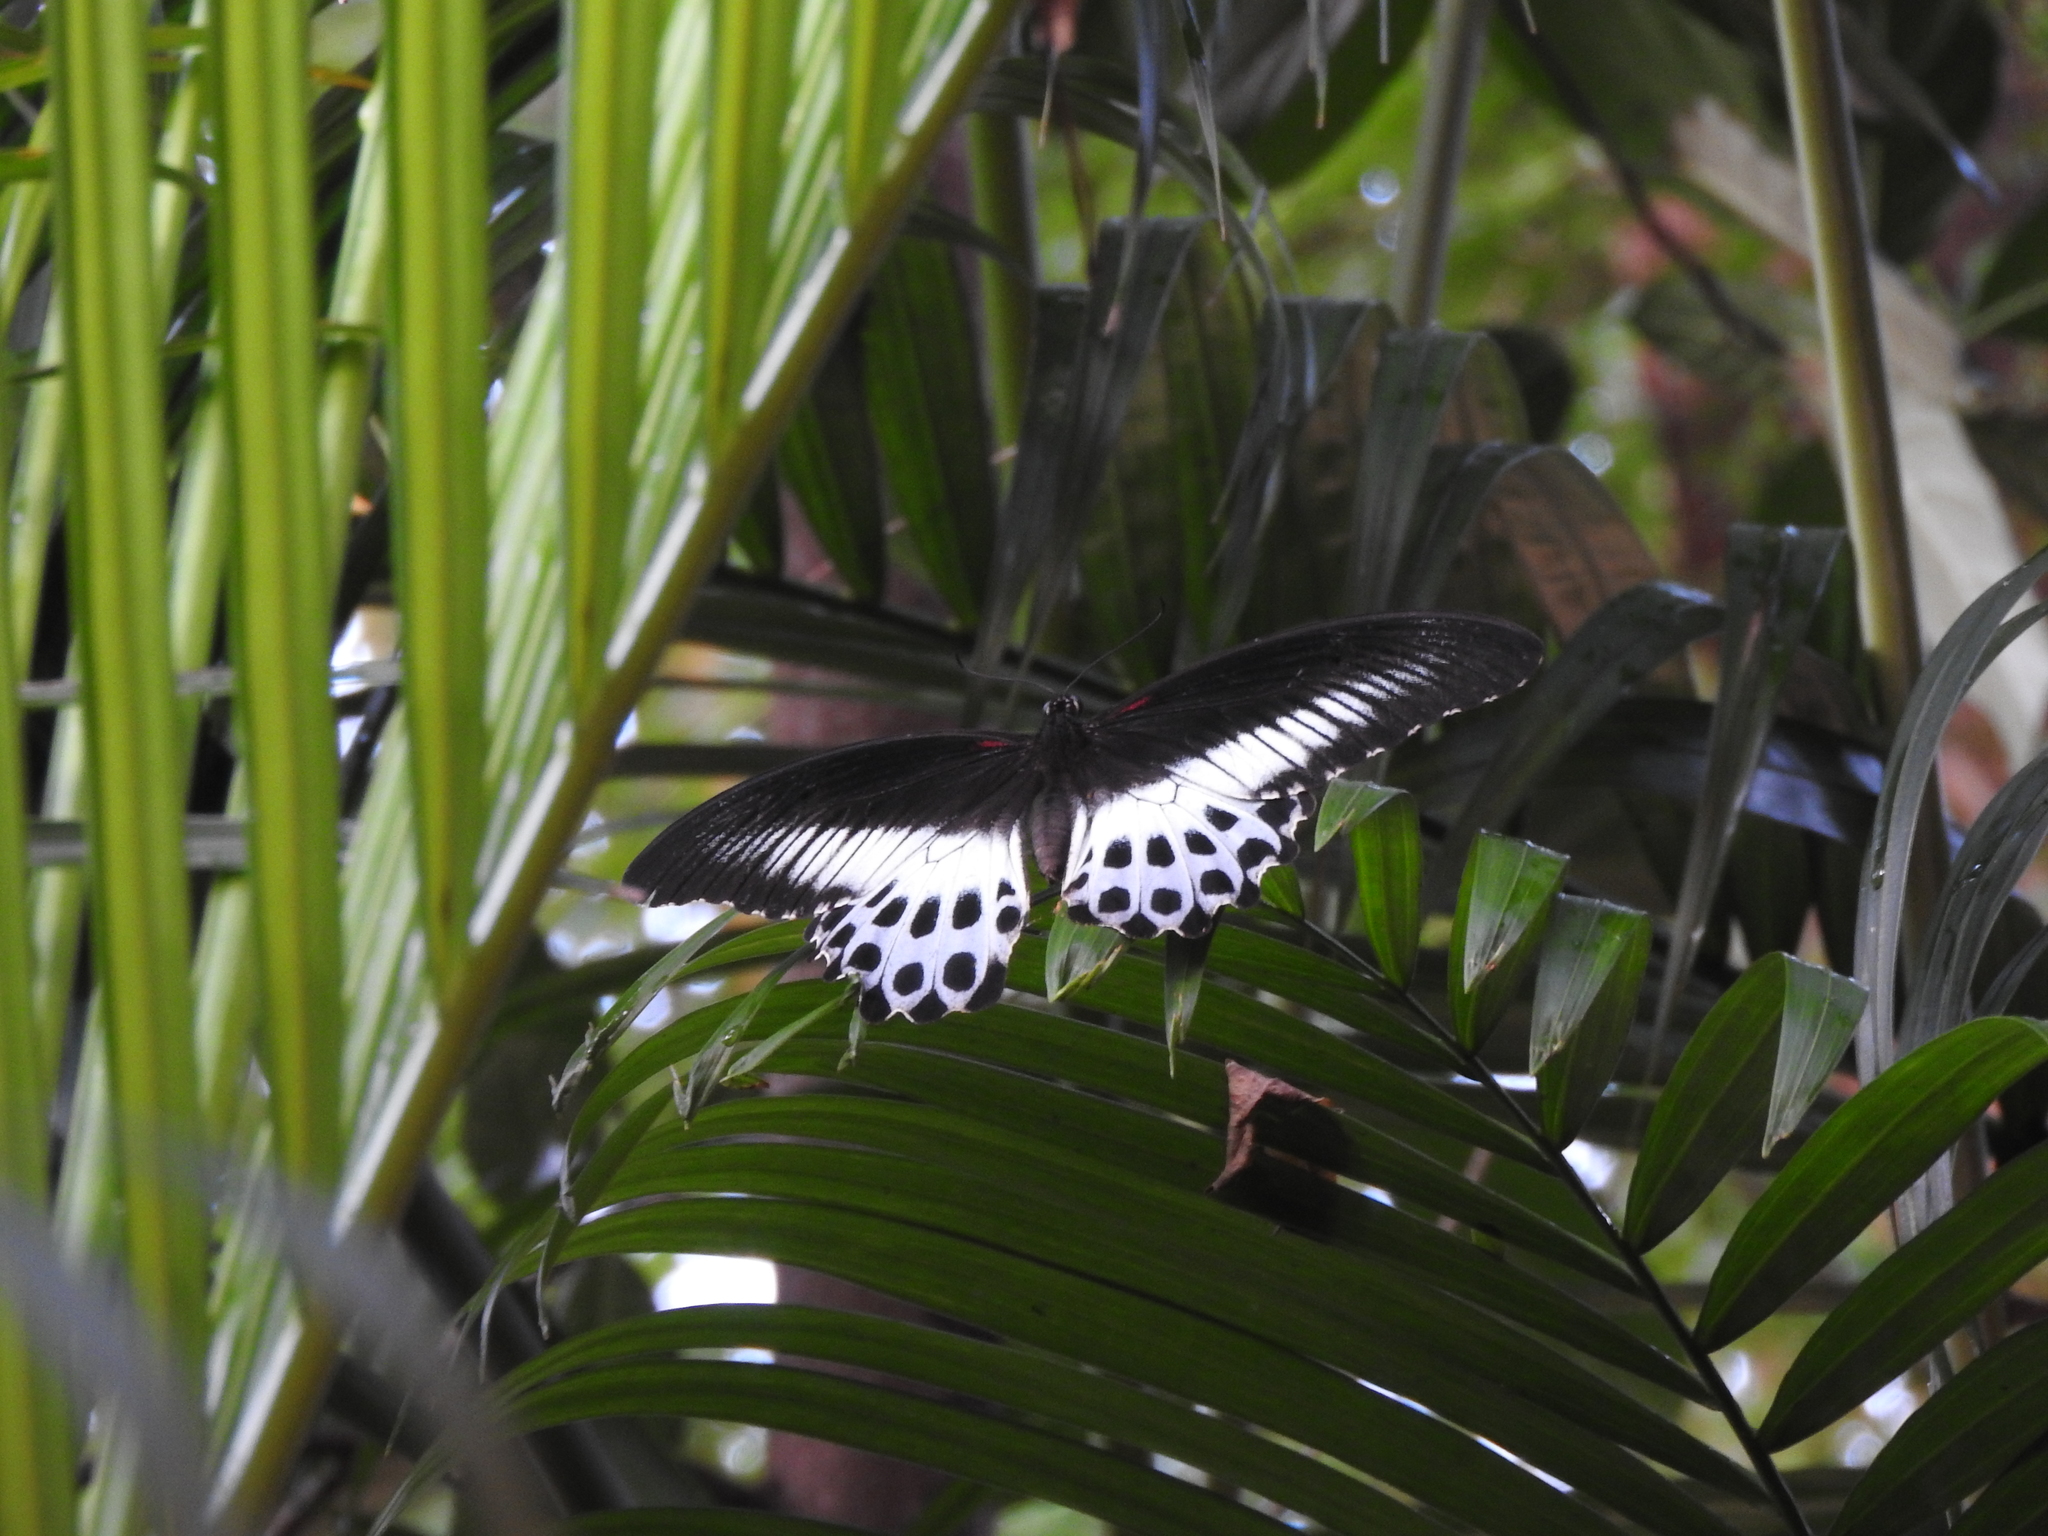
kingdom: Animalia
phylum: Arthropoda
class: Insecta
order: Lepidoptera
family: Papilionidae
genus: Papilio
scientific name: Papilio memnon
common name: Great mormon
